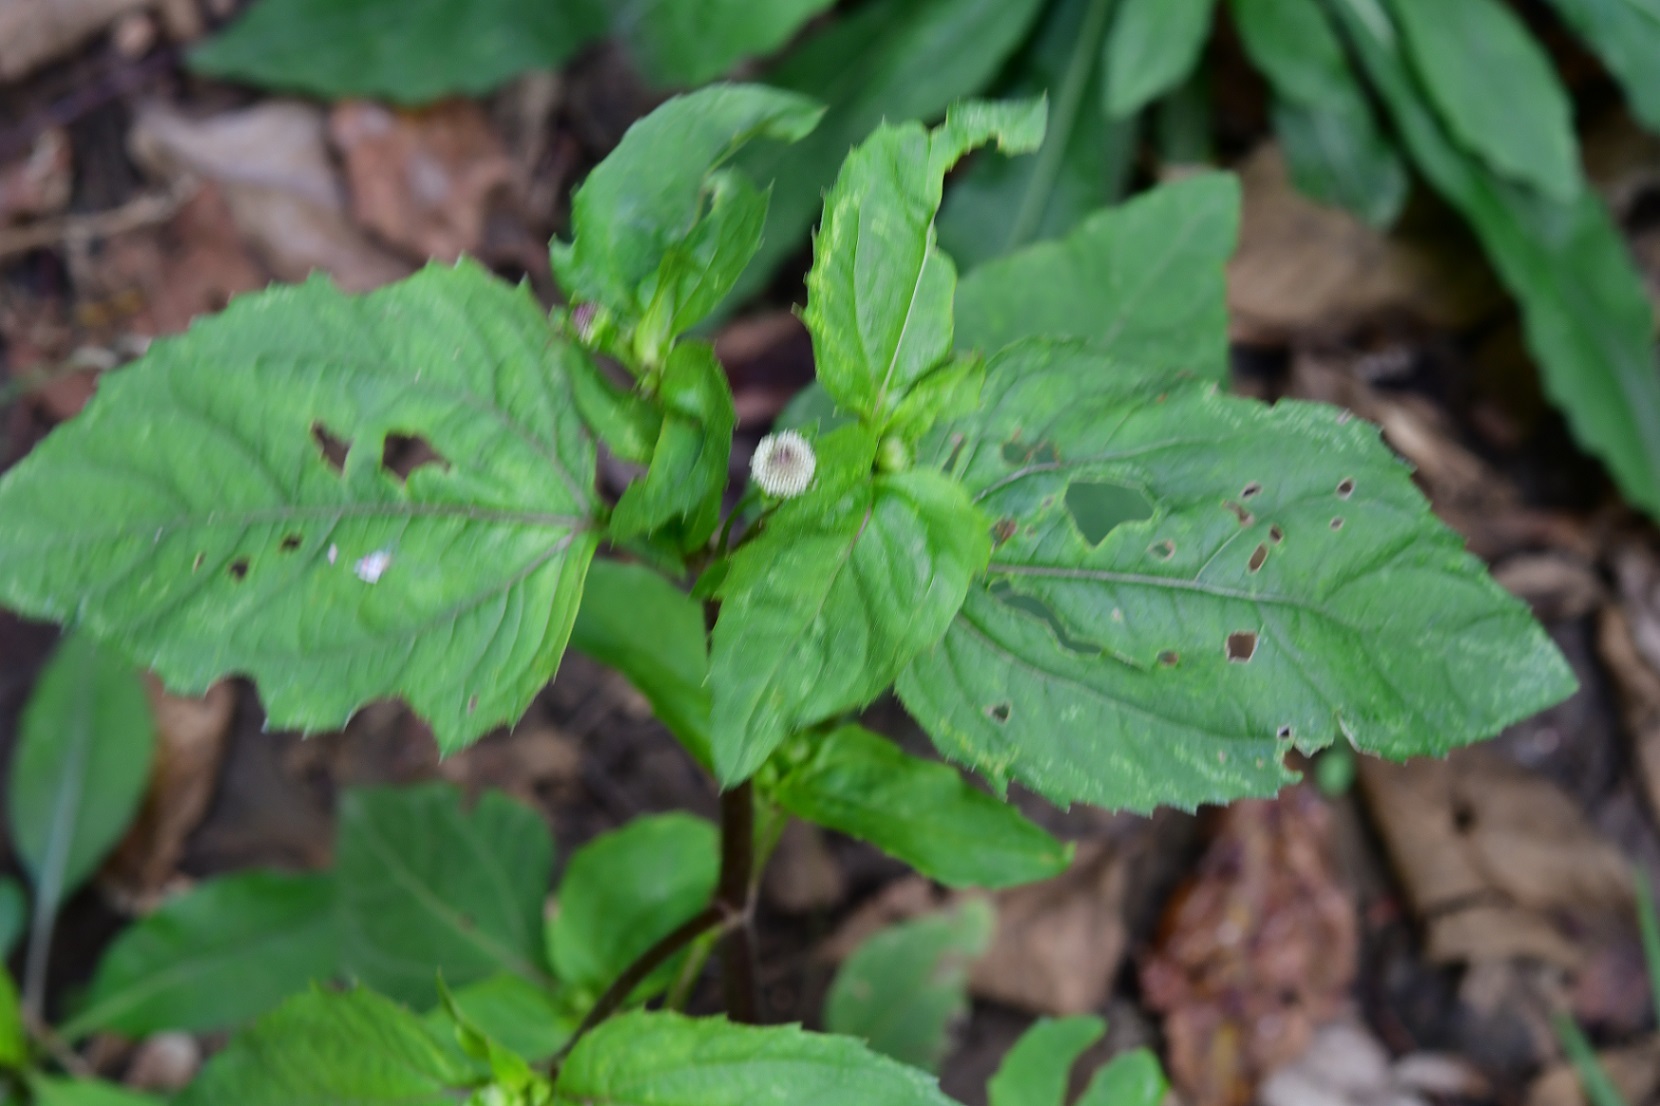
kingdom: Plantae
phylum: Tracheophyta
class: Magnoliopsida
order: Asterales
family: Asteraceae
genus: Acmella
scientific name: Acmella radicans
